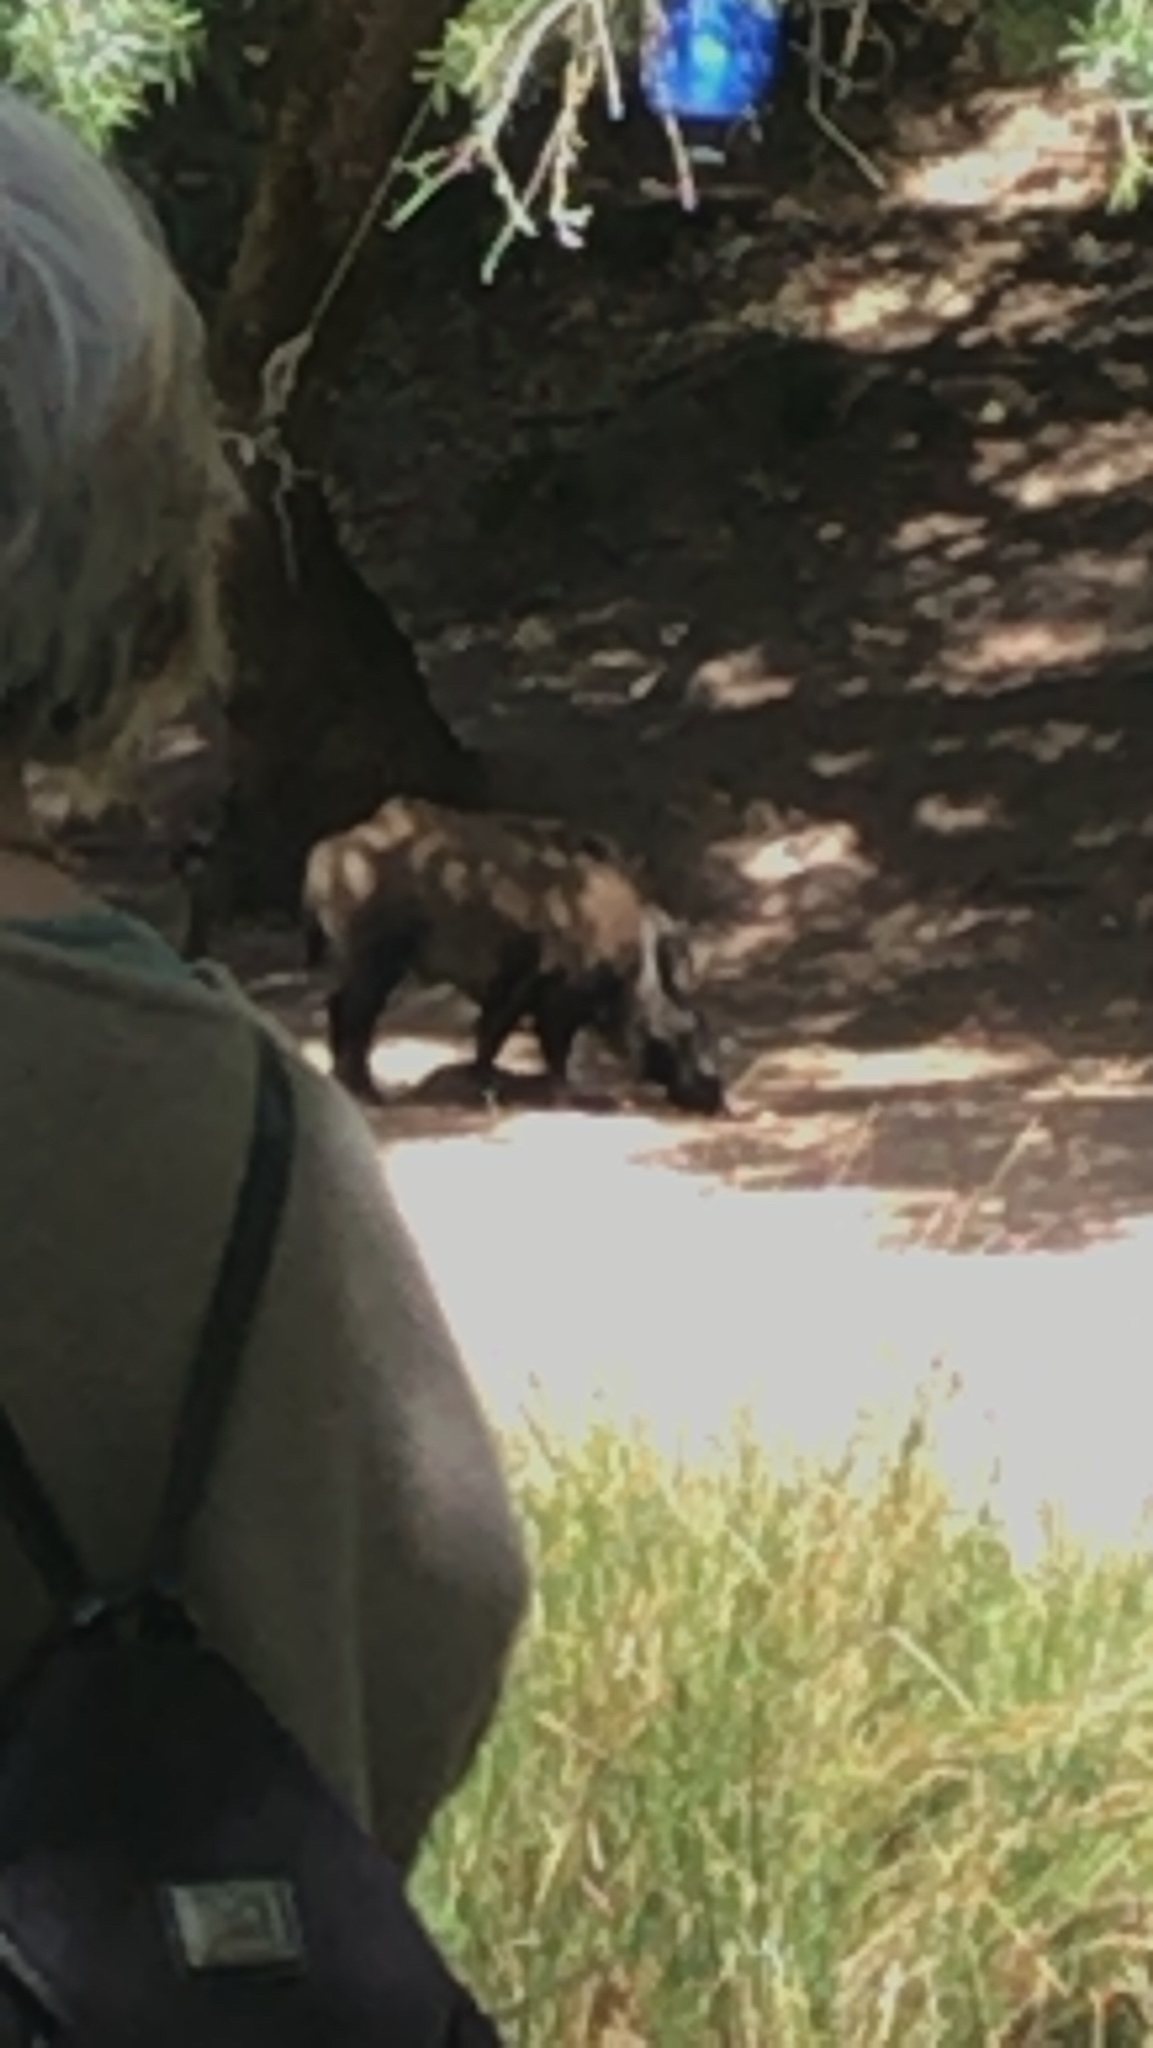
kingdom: Animalia
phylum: Chordata
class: Mammalia
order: Artiodactyla
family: Suidae
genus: Sus
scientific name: Sus scrofa
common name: Wild boar
